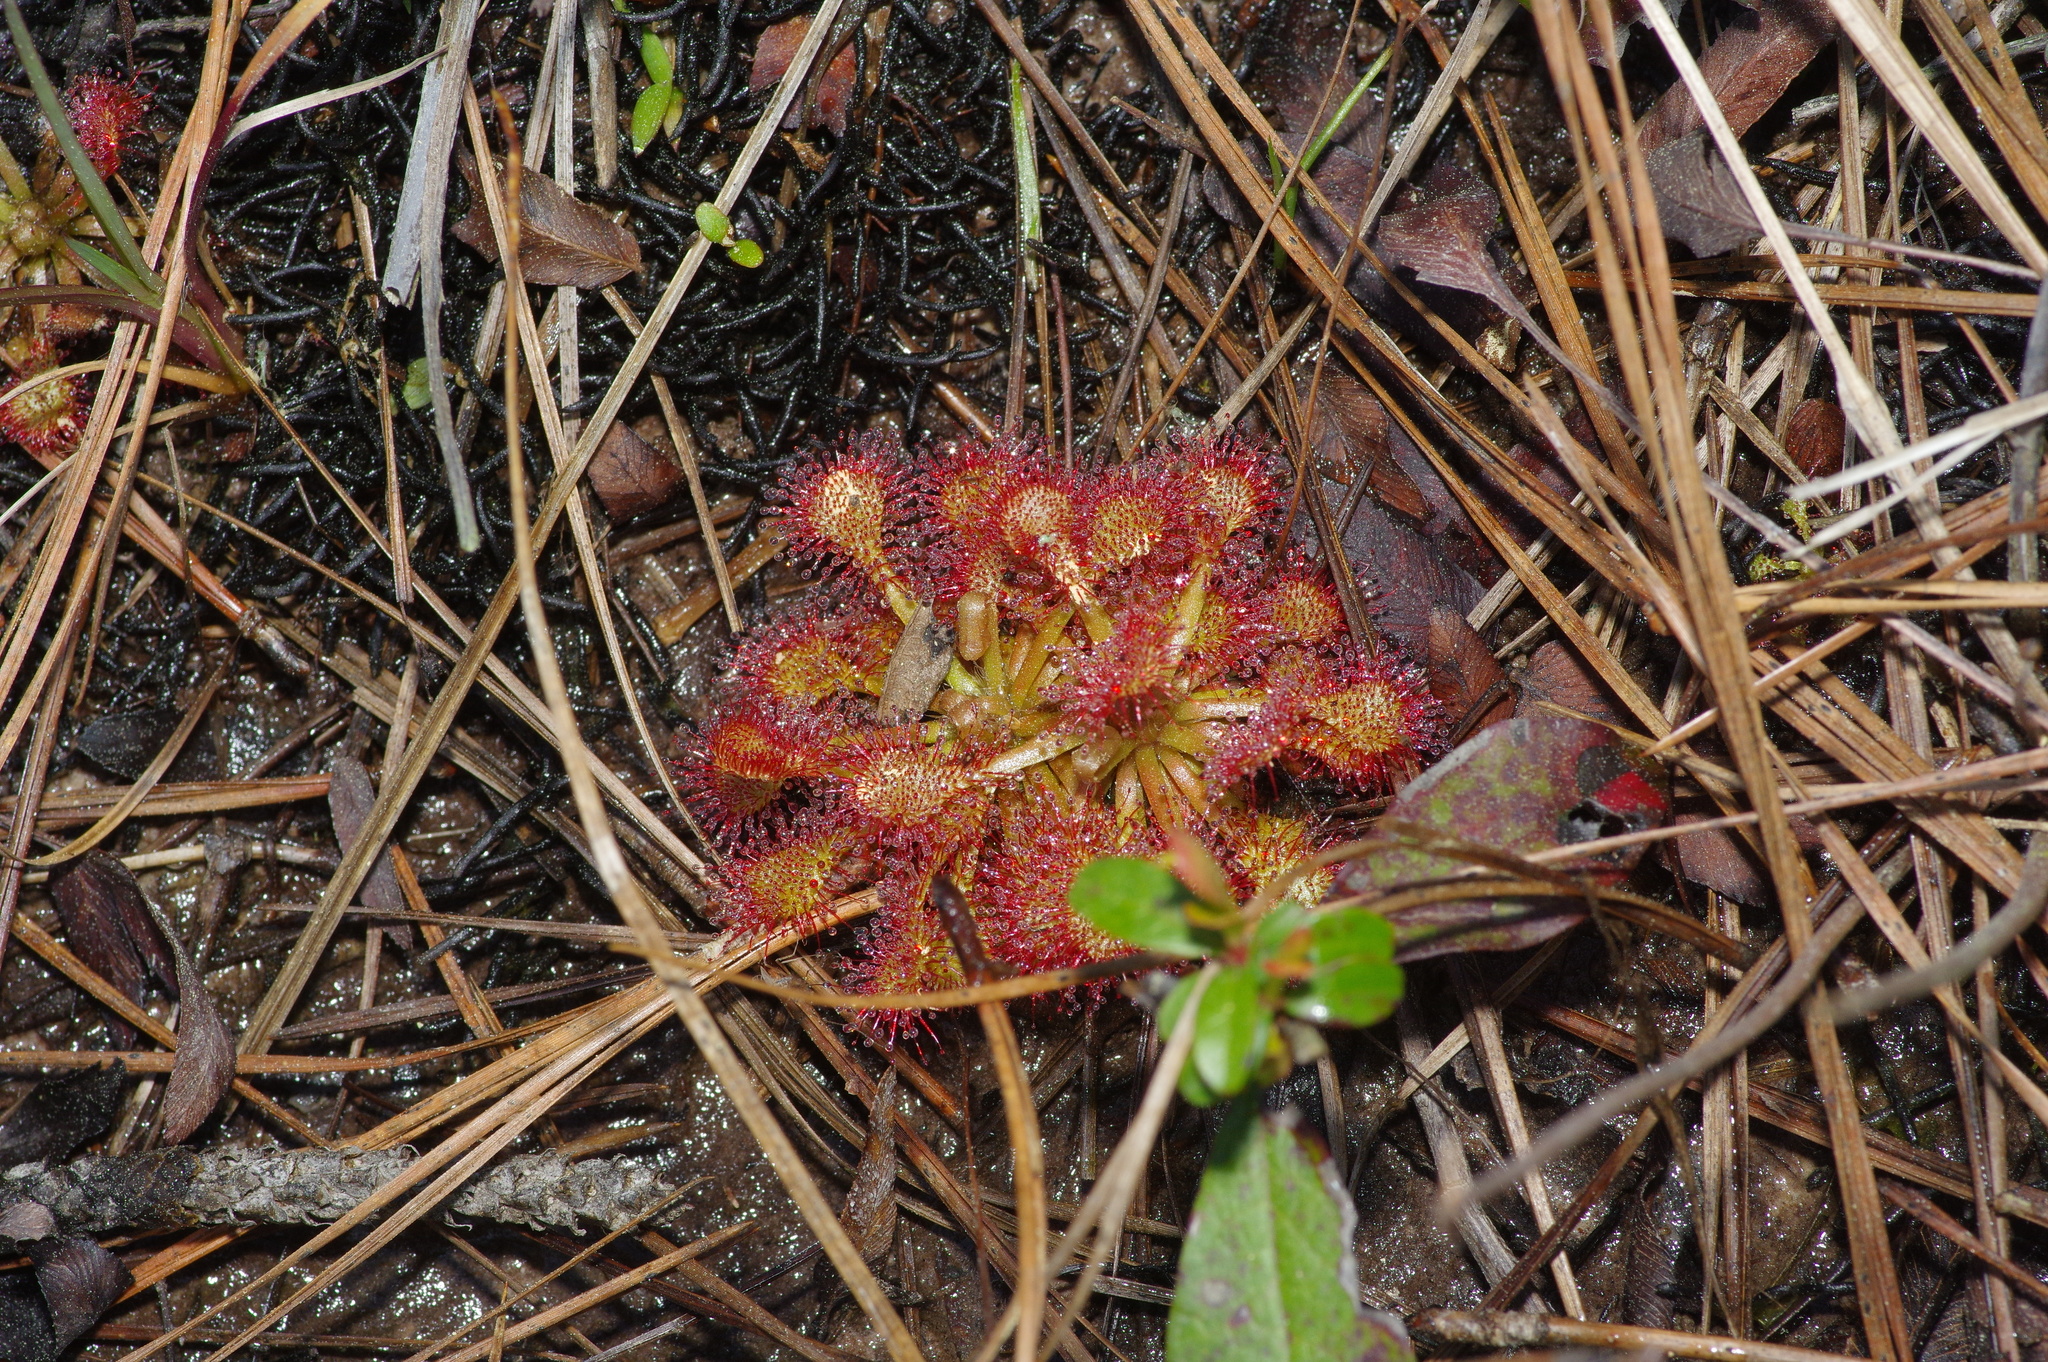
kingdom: Plantae
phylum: Tracheophyta
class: Magnoliopsida
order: Caryophyllales
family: Droseraceae
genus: Drosera
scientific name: Drosera capillaris
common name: Pink sundew
